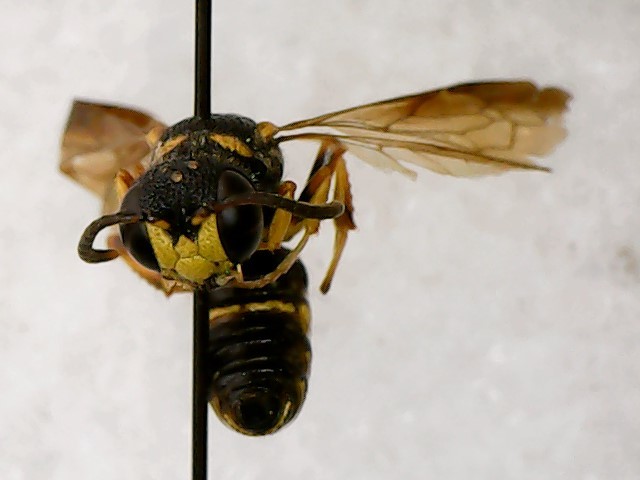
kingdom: Animalia
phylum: Arthropoda
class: Insecta
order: Hymenoptera
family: Crabronidae
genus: Cerceris
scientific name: Cerceris insolita
